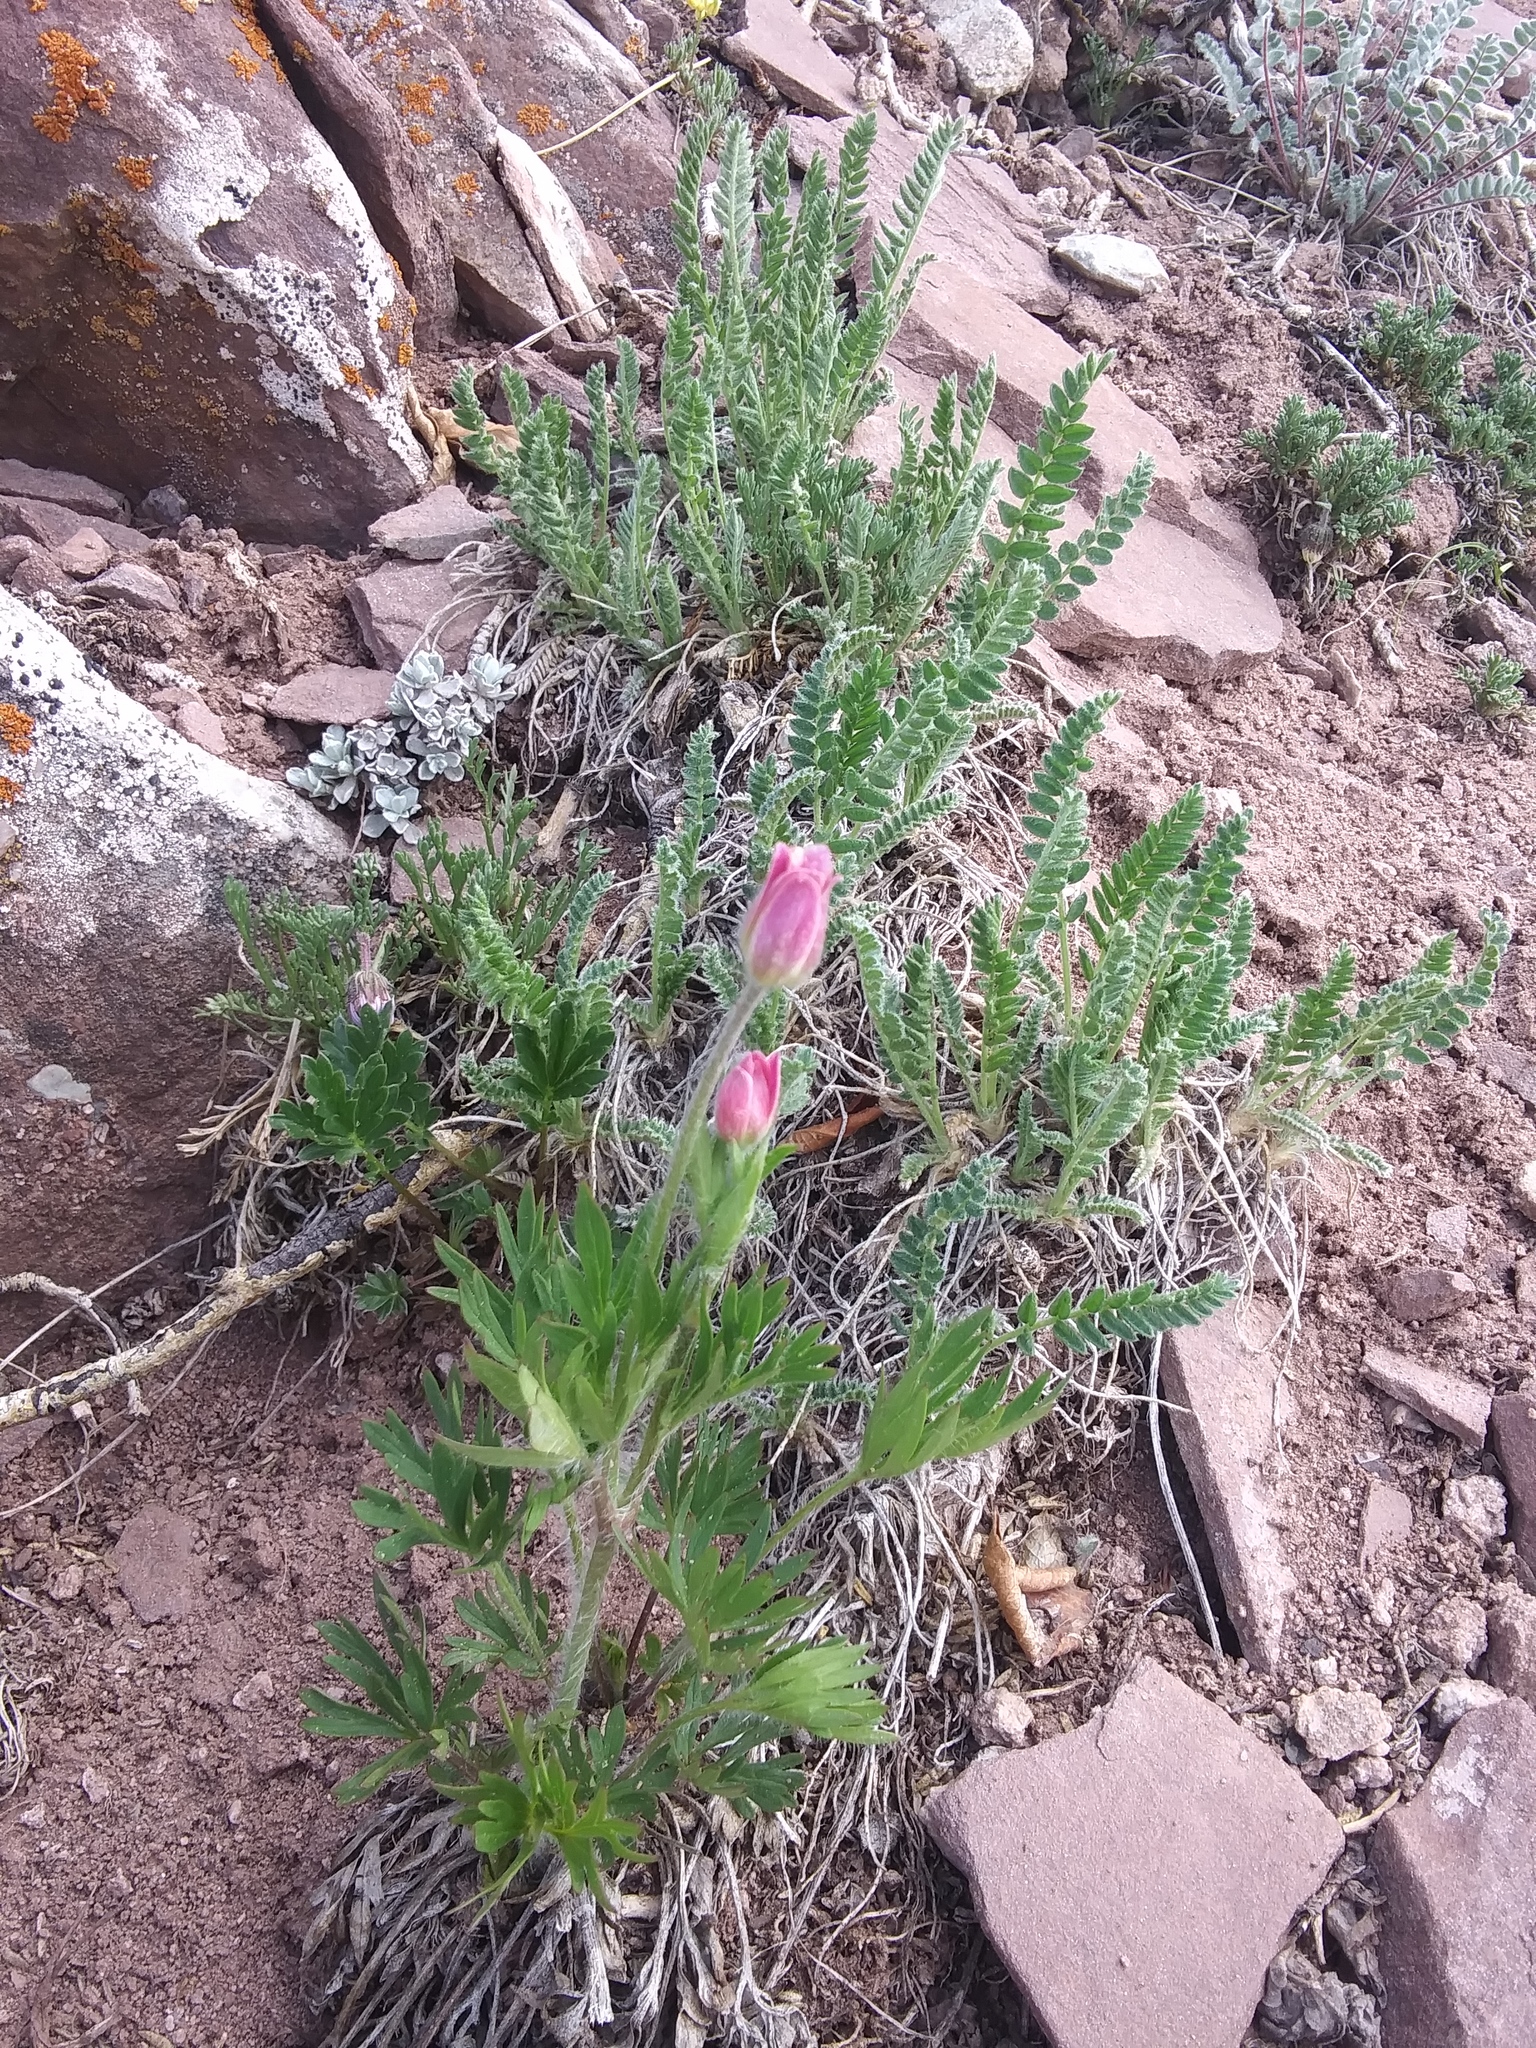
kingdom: Plantae
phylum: Tracheophyta
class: Magnoliopsida
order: Ranunculales
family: Ranunculaceae
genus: Anemone
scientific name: Anemone multifida
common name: Bird's-foot anemone
